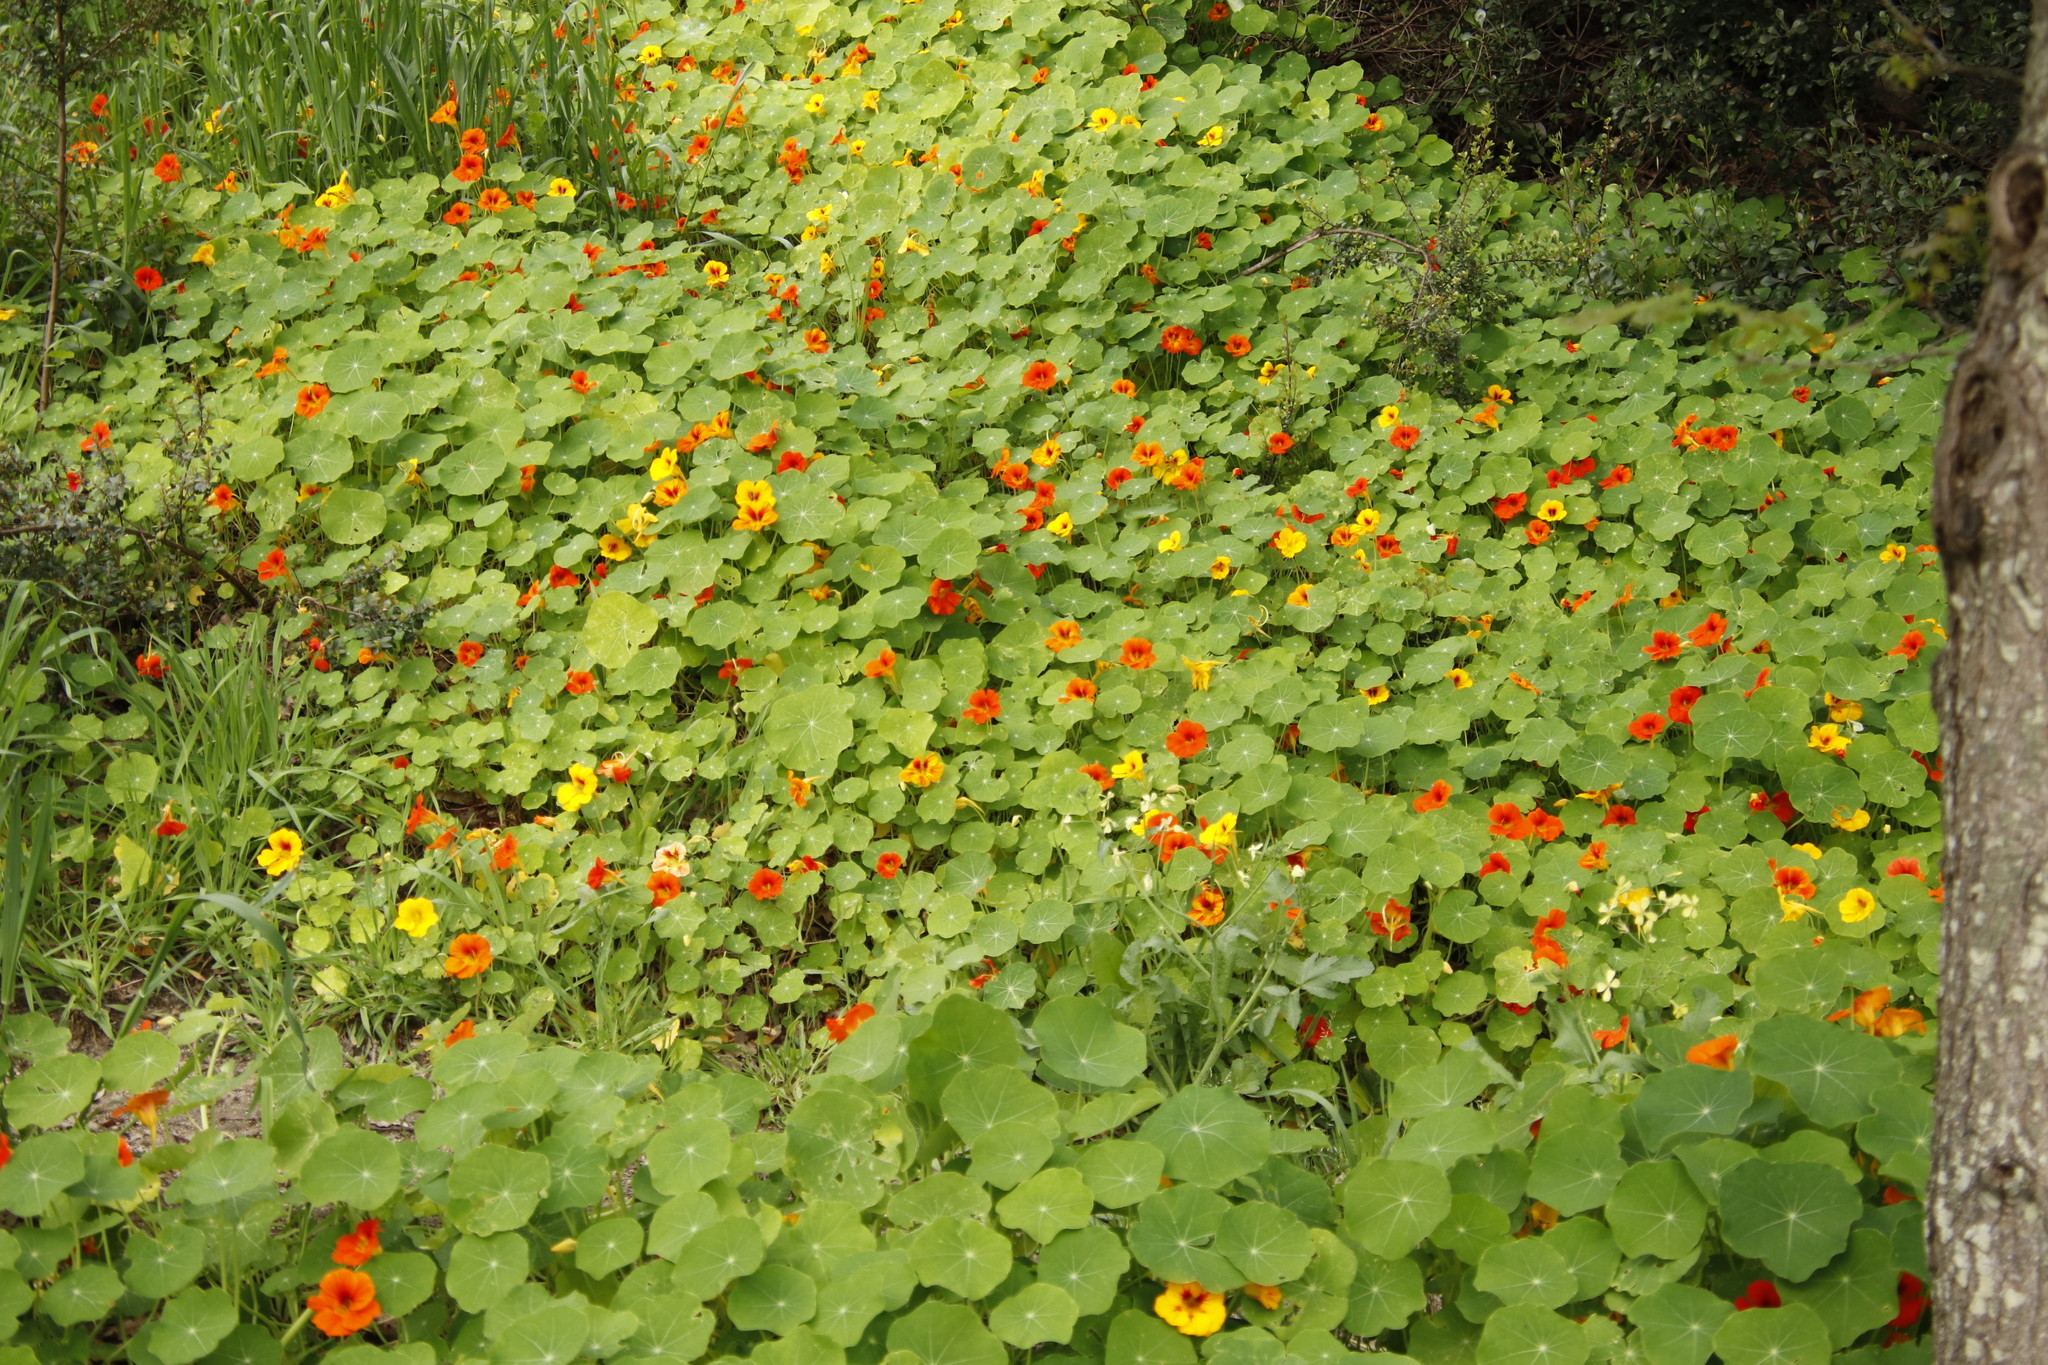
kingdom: Plantae
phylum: Tracheophyta
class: Magnoliopsida
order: Brassicales
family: Tropaeolaceae
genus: Tropaeolum
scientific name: Tropaeolum majus
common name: Nasturtium
